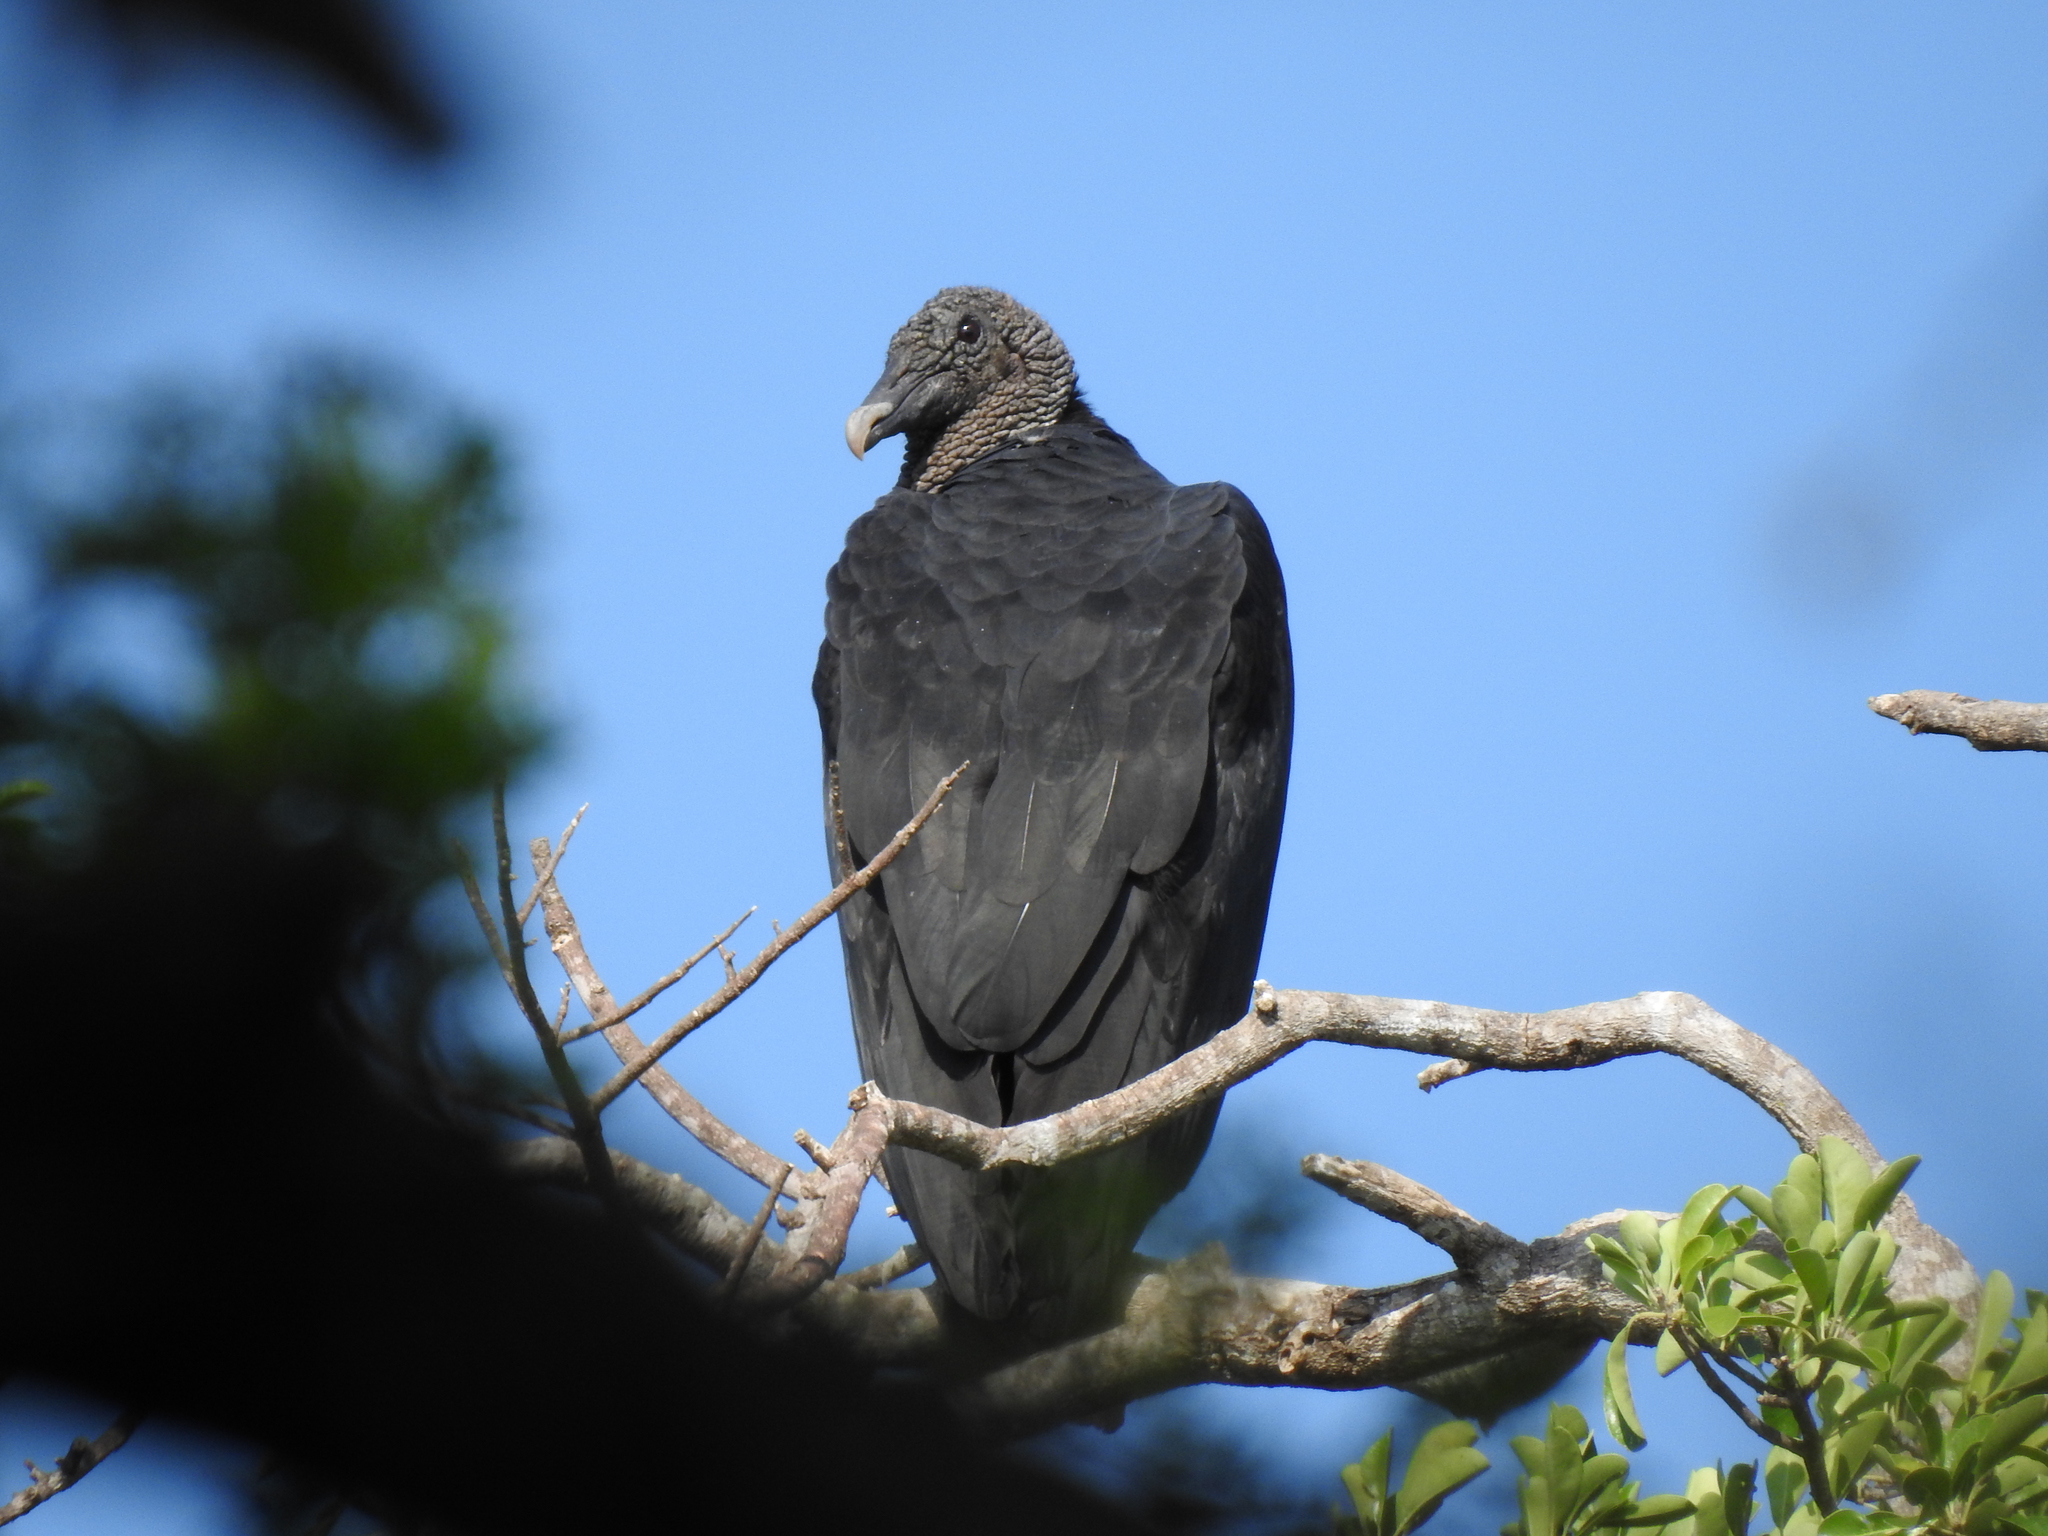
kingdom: Animalia
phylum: Chordata
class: Aves
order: Accipitriformes
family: Cathartidae
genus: Coragyps
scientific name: Coragyps atratus
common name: Black vulture
